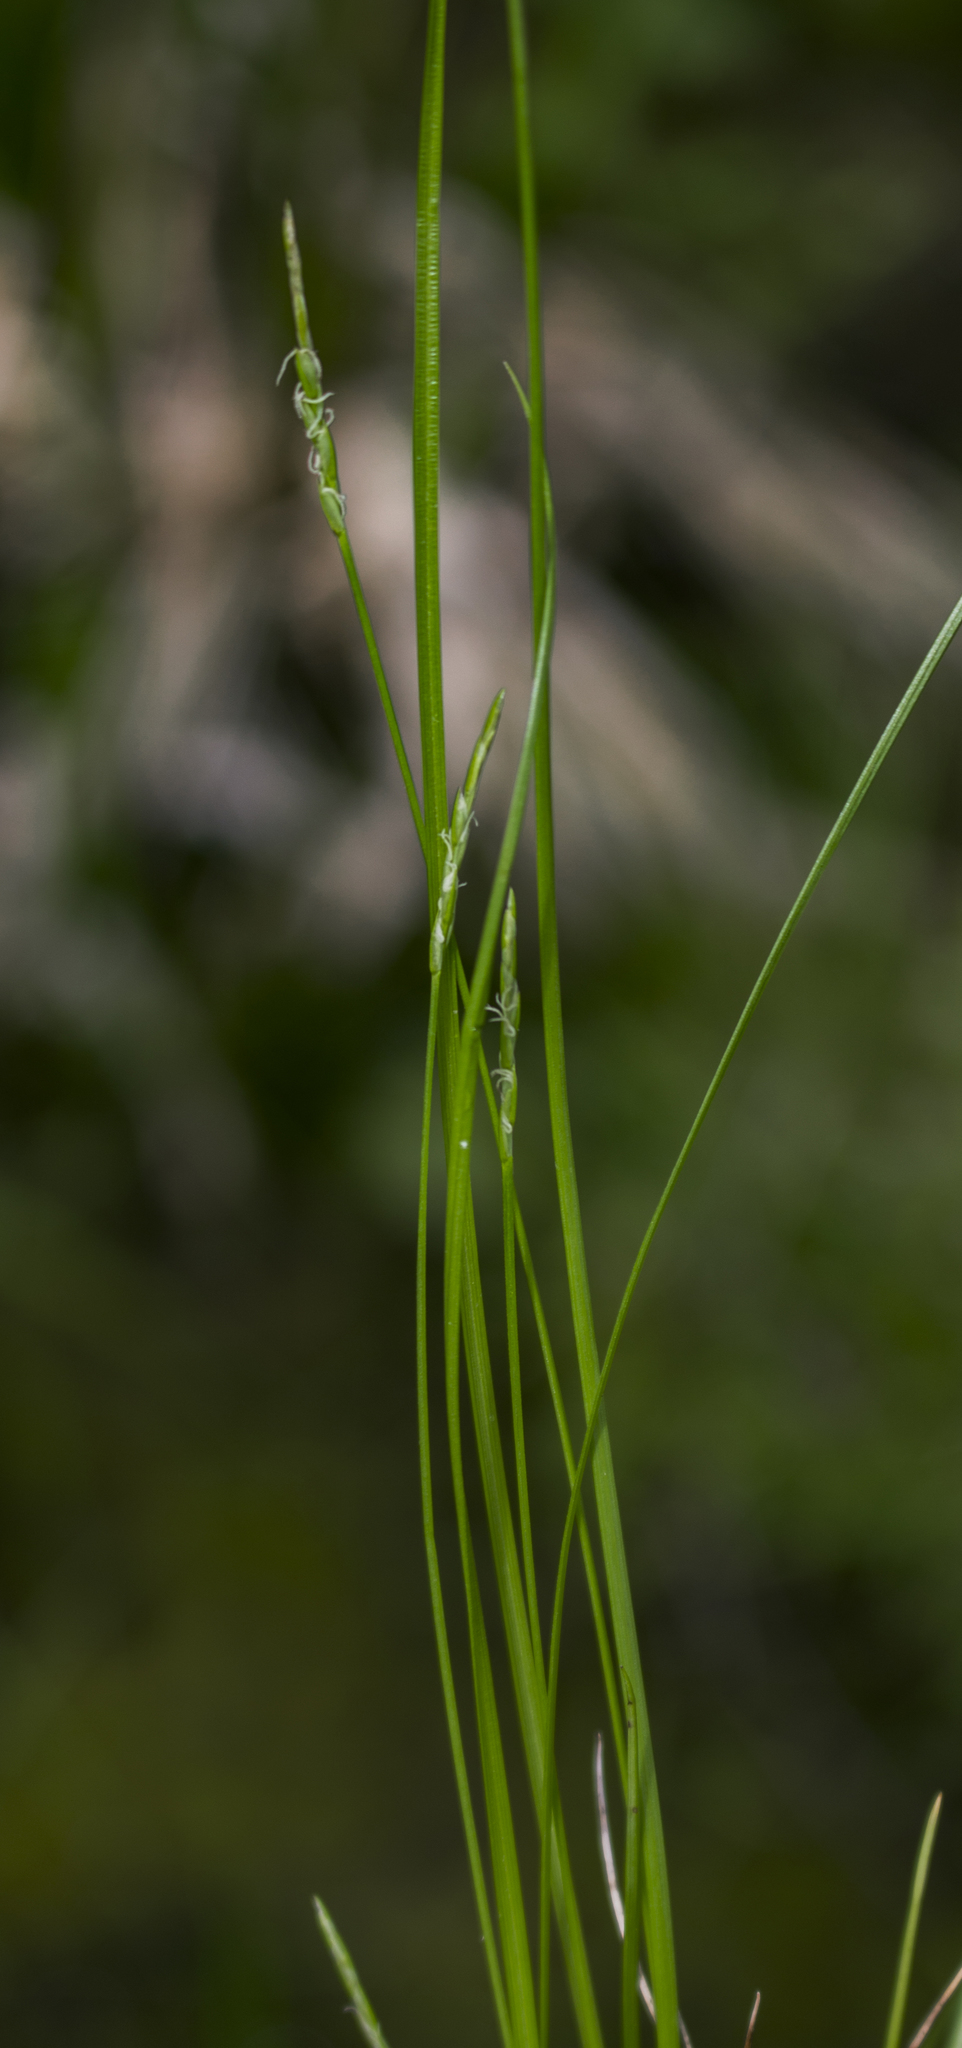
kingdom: Plantae
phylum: Tracheophyta
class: Liliopsida
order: Poales
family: Cyperaceae
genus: Carex
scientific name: Carex leptalea
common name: Bristly-stalked sedge
